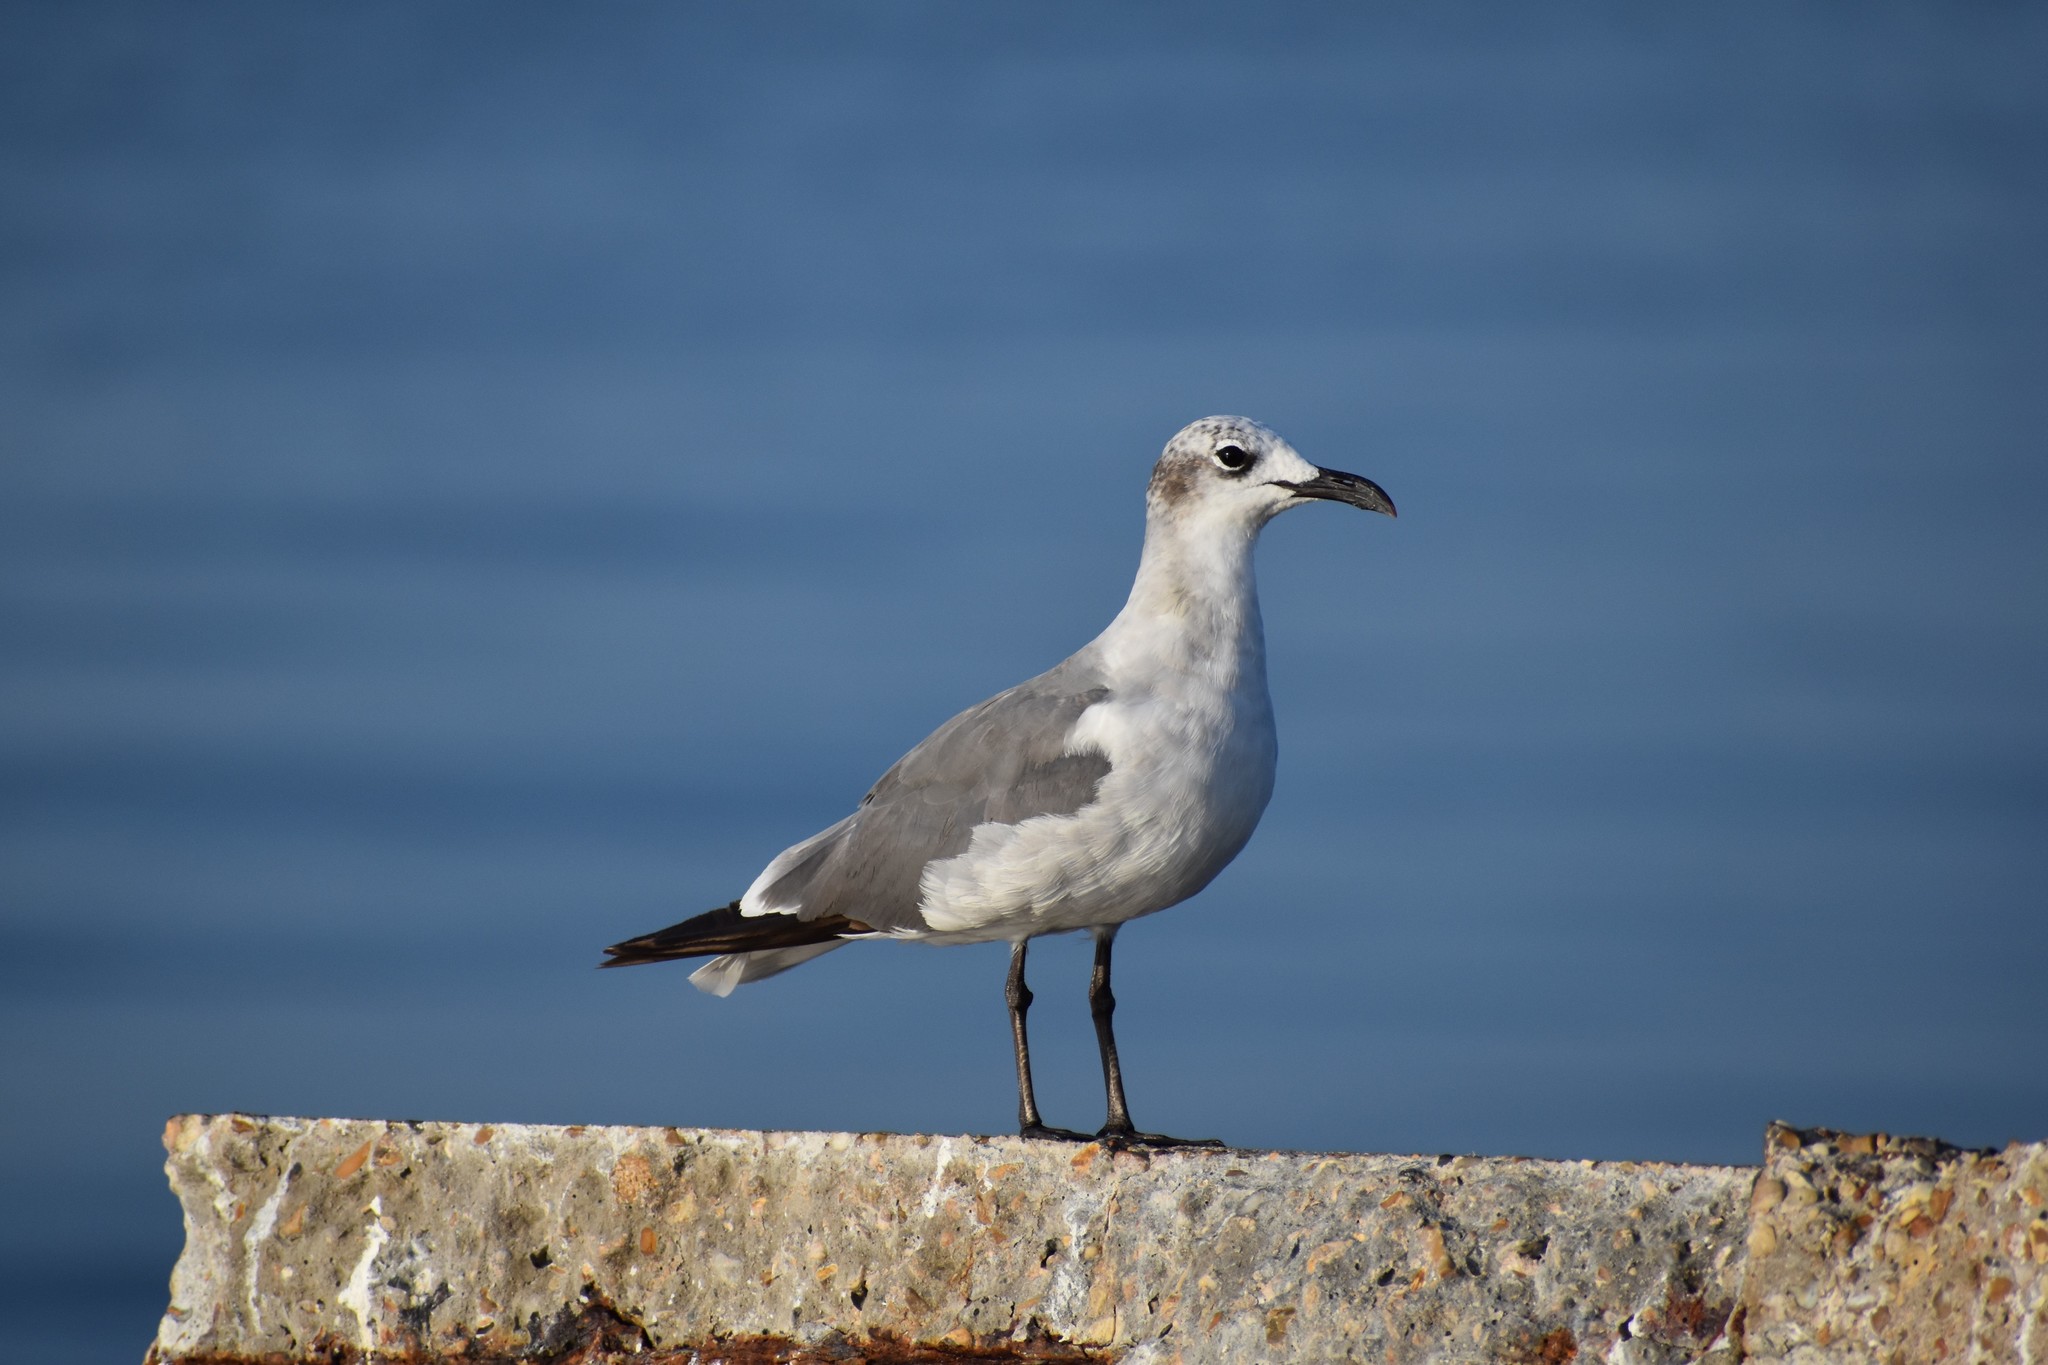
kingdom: Animalia
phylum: Chordata
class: Aves
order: Charadriiformes
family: Laridae
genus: Leucophaeus
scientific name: Leucophaeus atricilla
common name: Laughing gull
